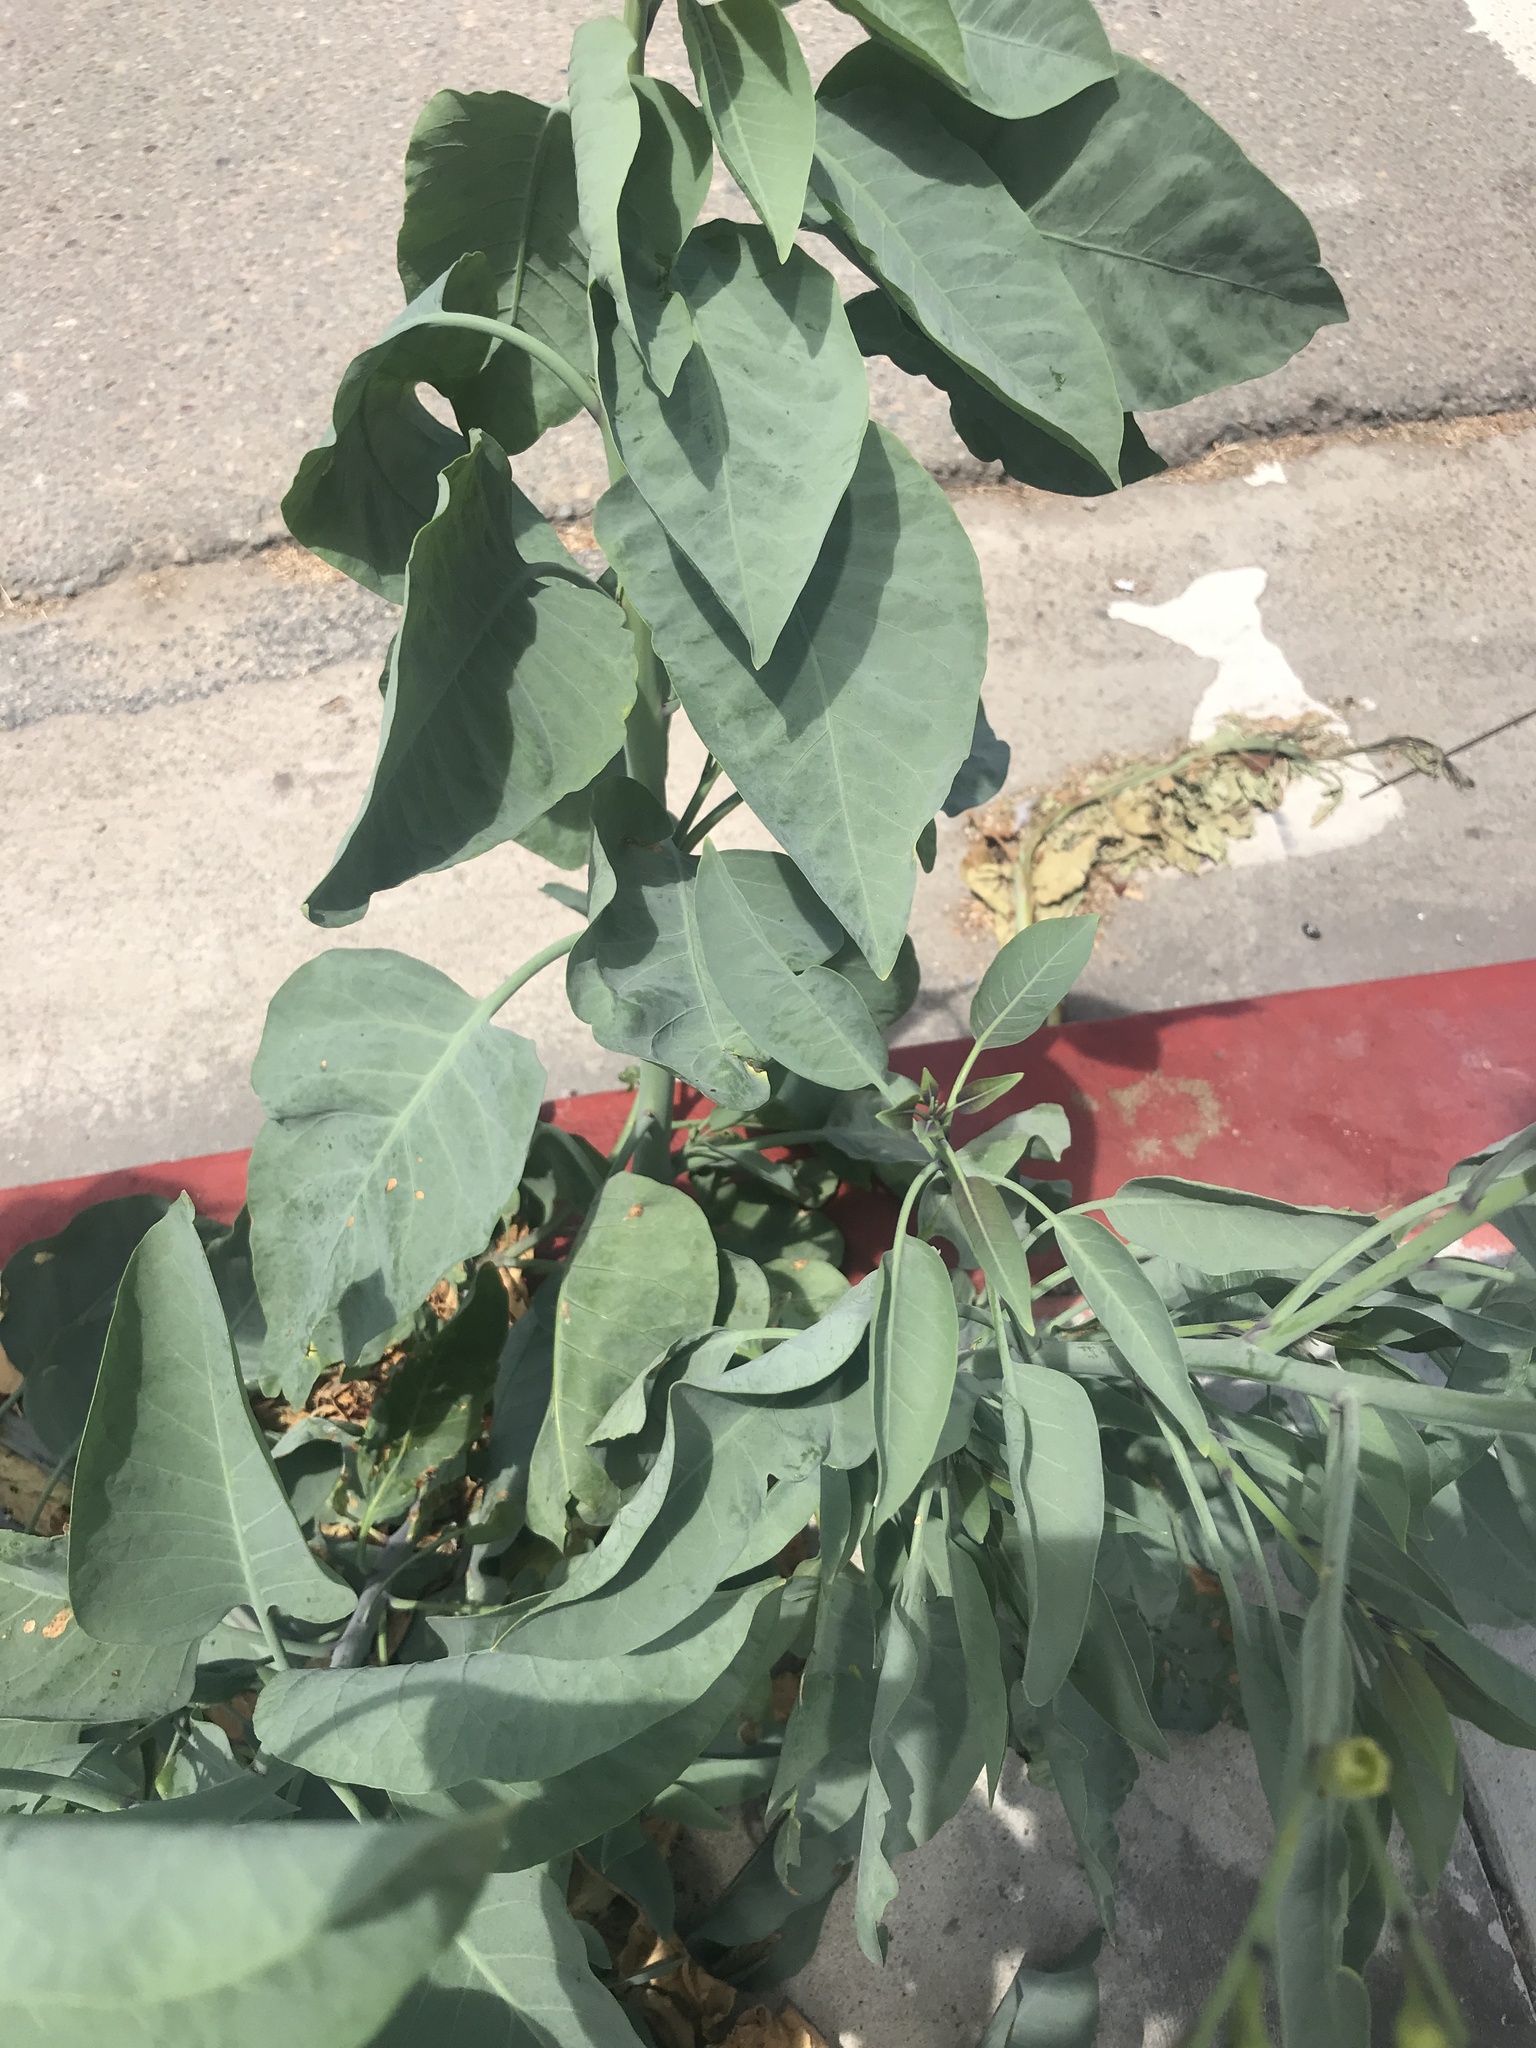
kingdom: Plantae
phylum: Tracheophyta
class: Magnoliopsida
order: Solanales
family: Solanaceae
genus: Nicotiana
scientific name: Nicotiana glauca
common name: Tree tobacco
